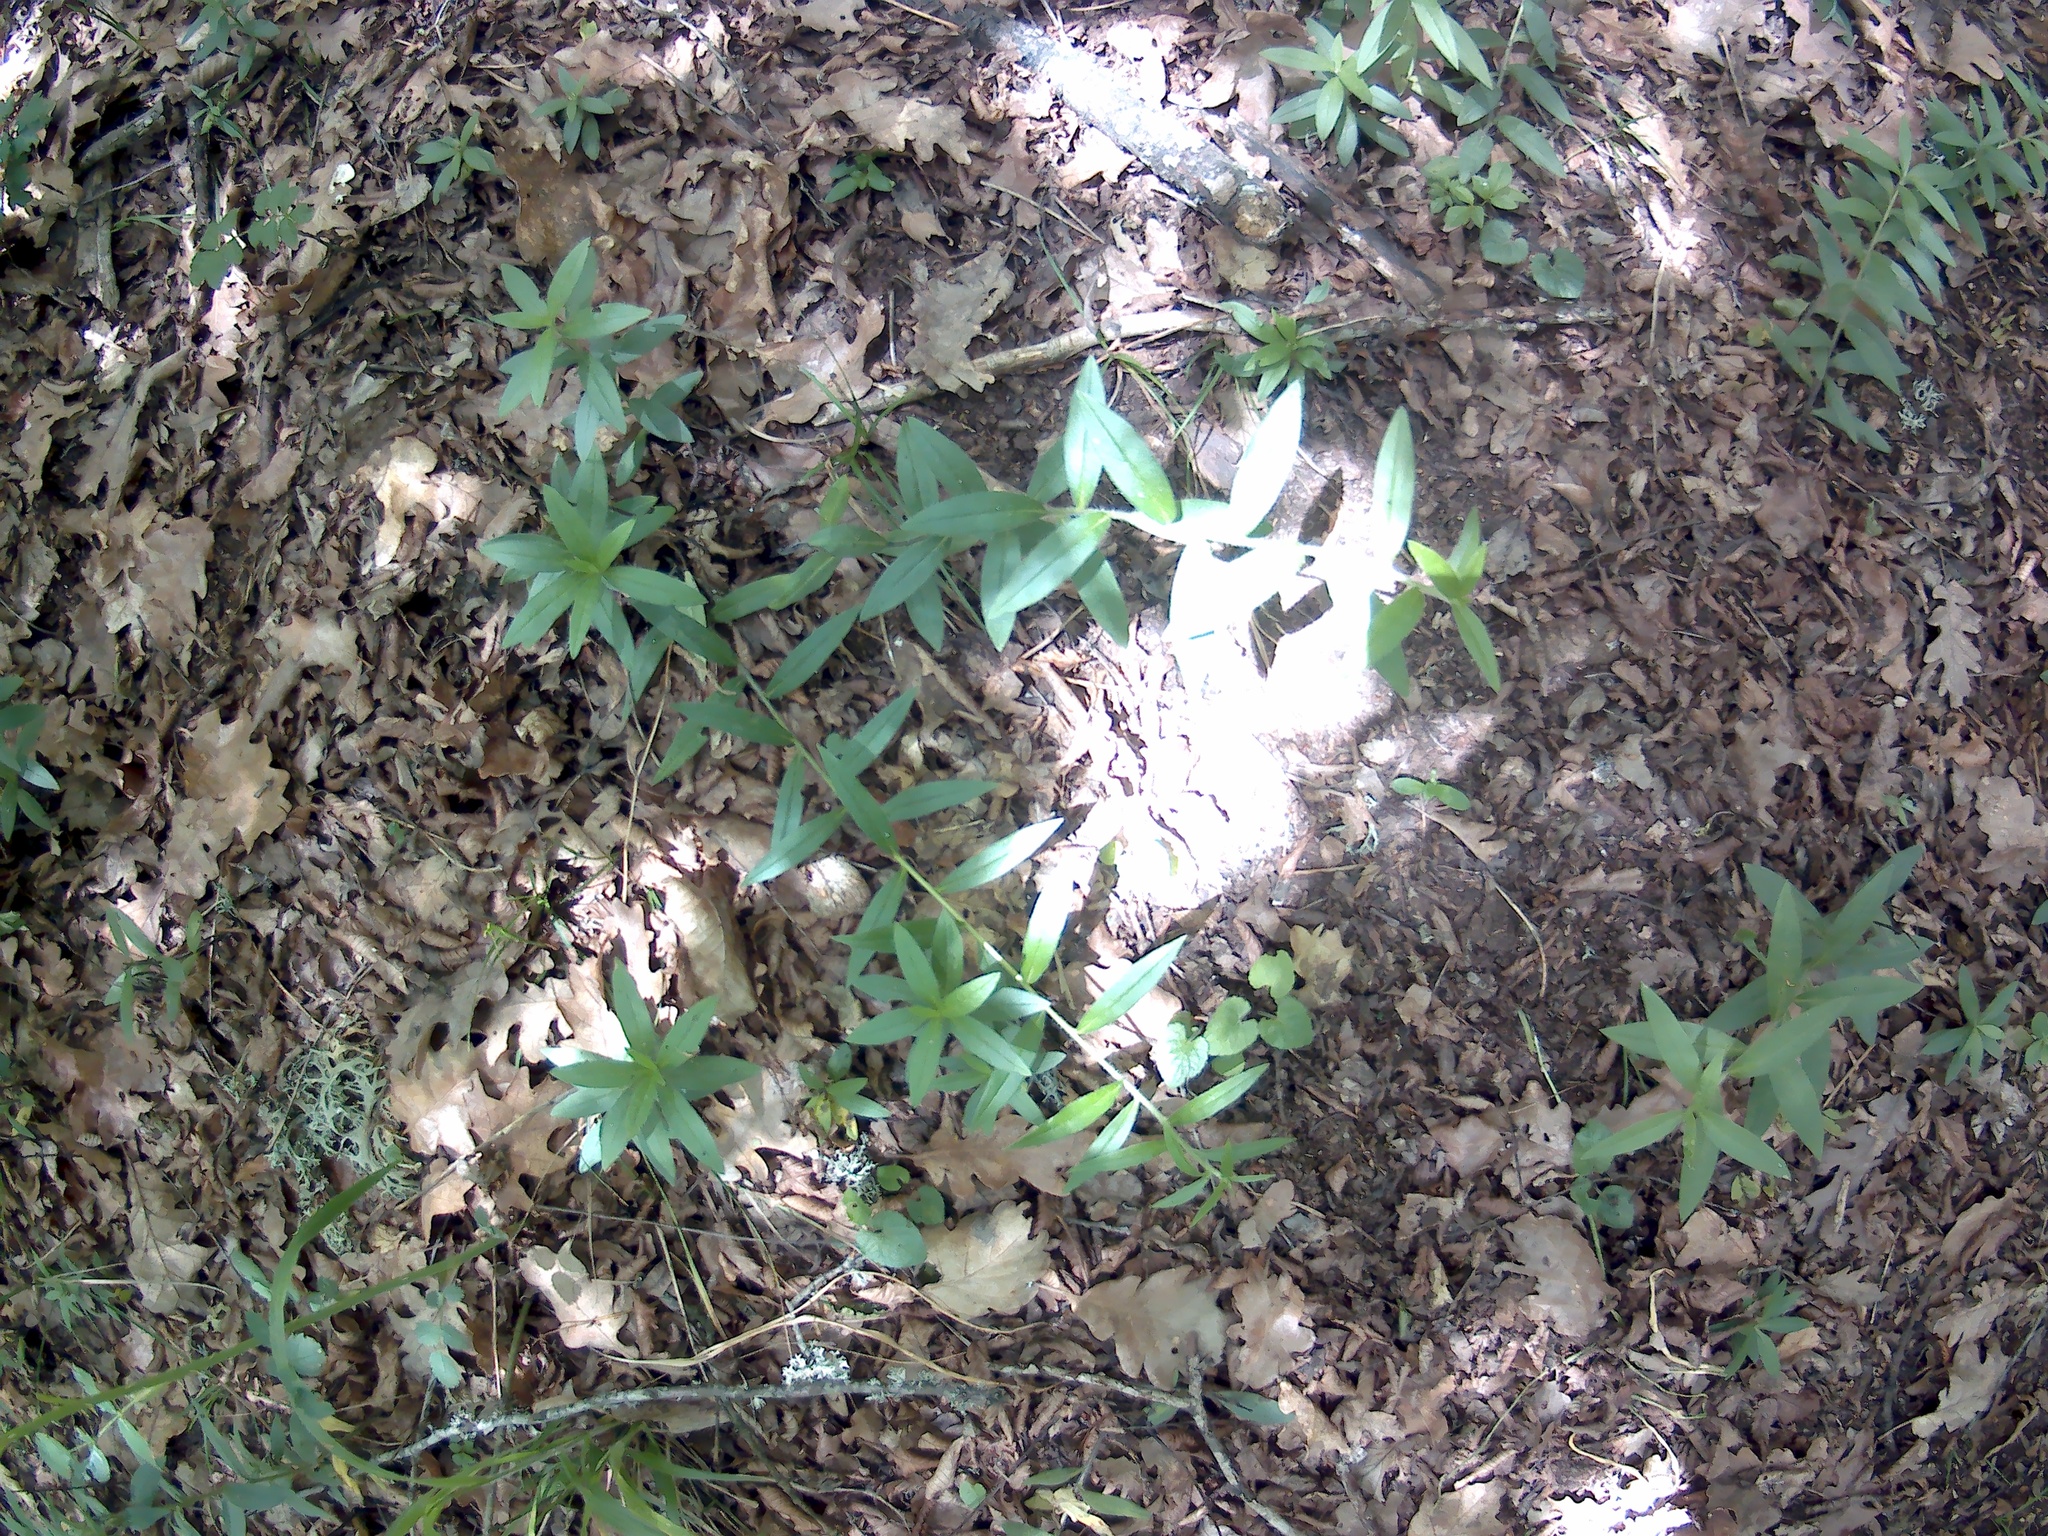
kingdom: Plantae
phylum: Tracheophyta
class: Magnoliopsida
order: Boraginales
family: Boraginaceae
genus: Aegonychon
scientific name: Aegonychon purpurocaeruleum
